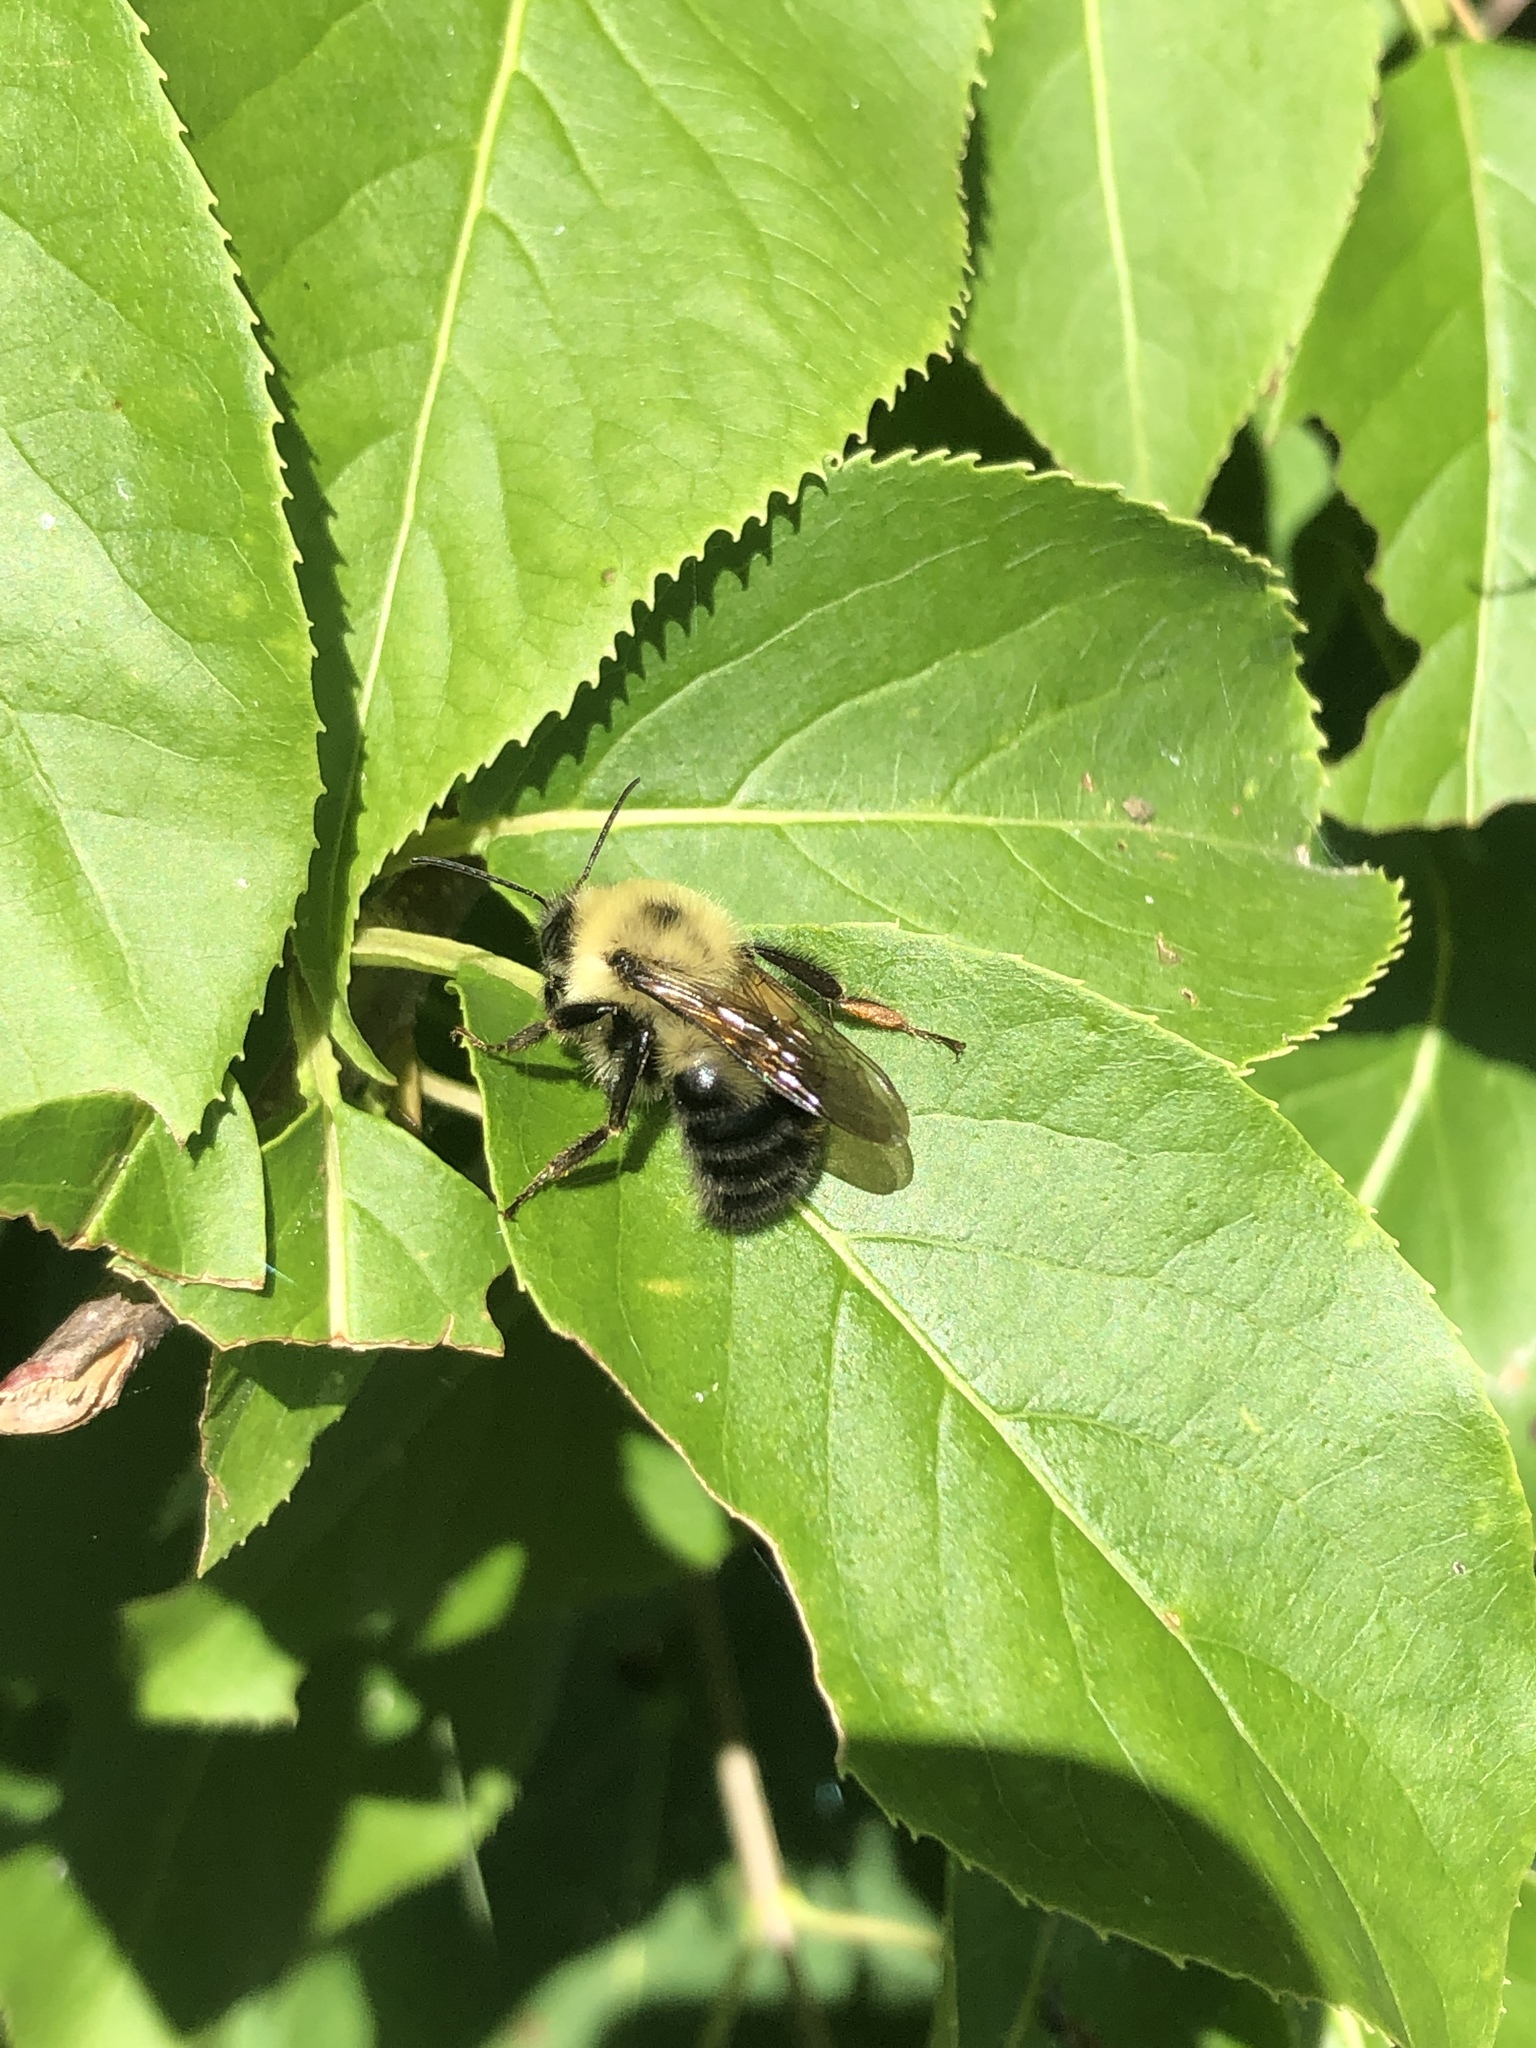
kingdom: Animalia
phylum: Arthropoda
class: Insecta
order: Hymenoptera
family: Apidae
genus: Bombus
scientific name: Bombus bimaculatus
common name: Two-spotted bumble bee
